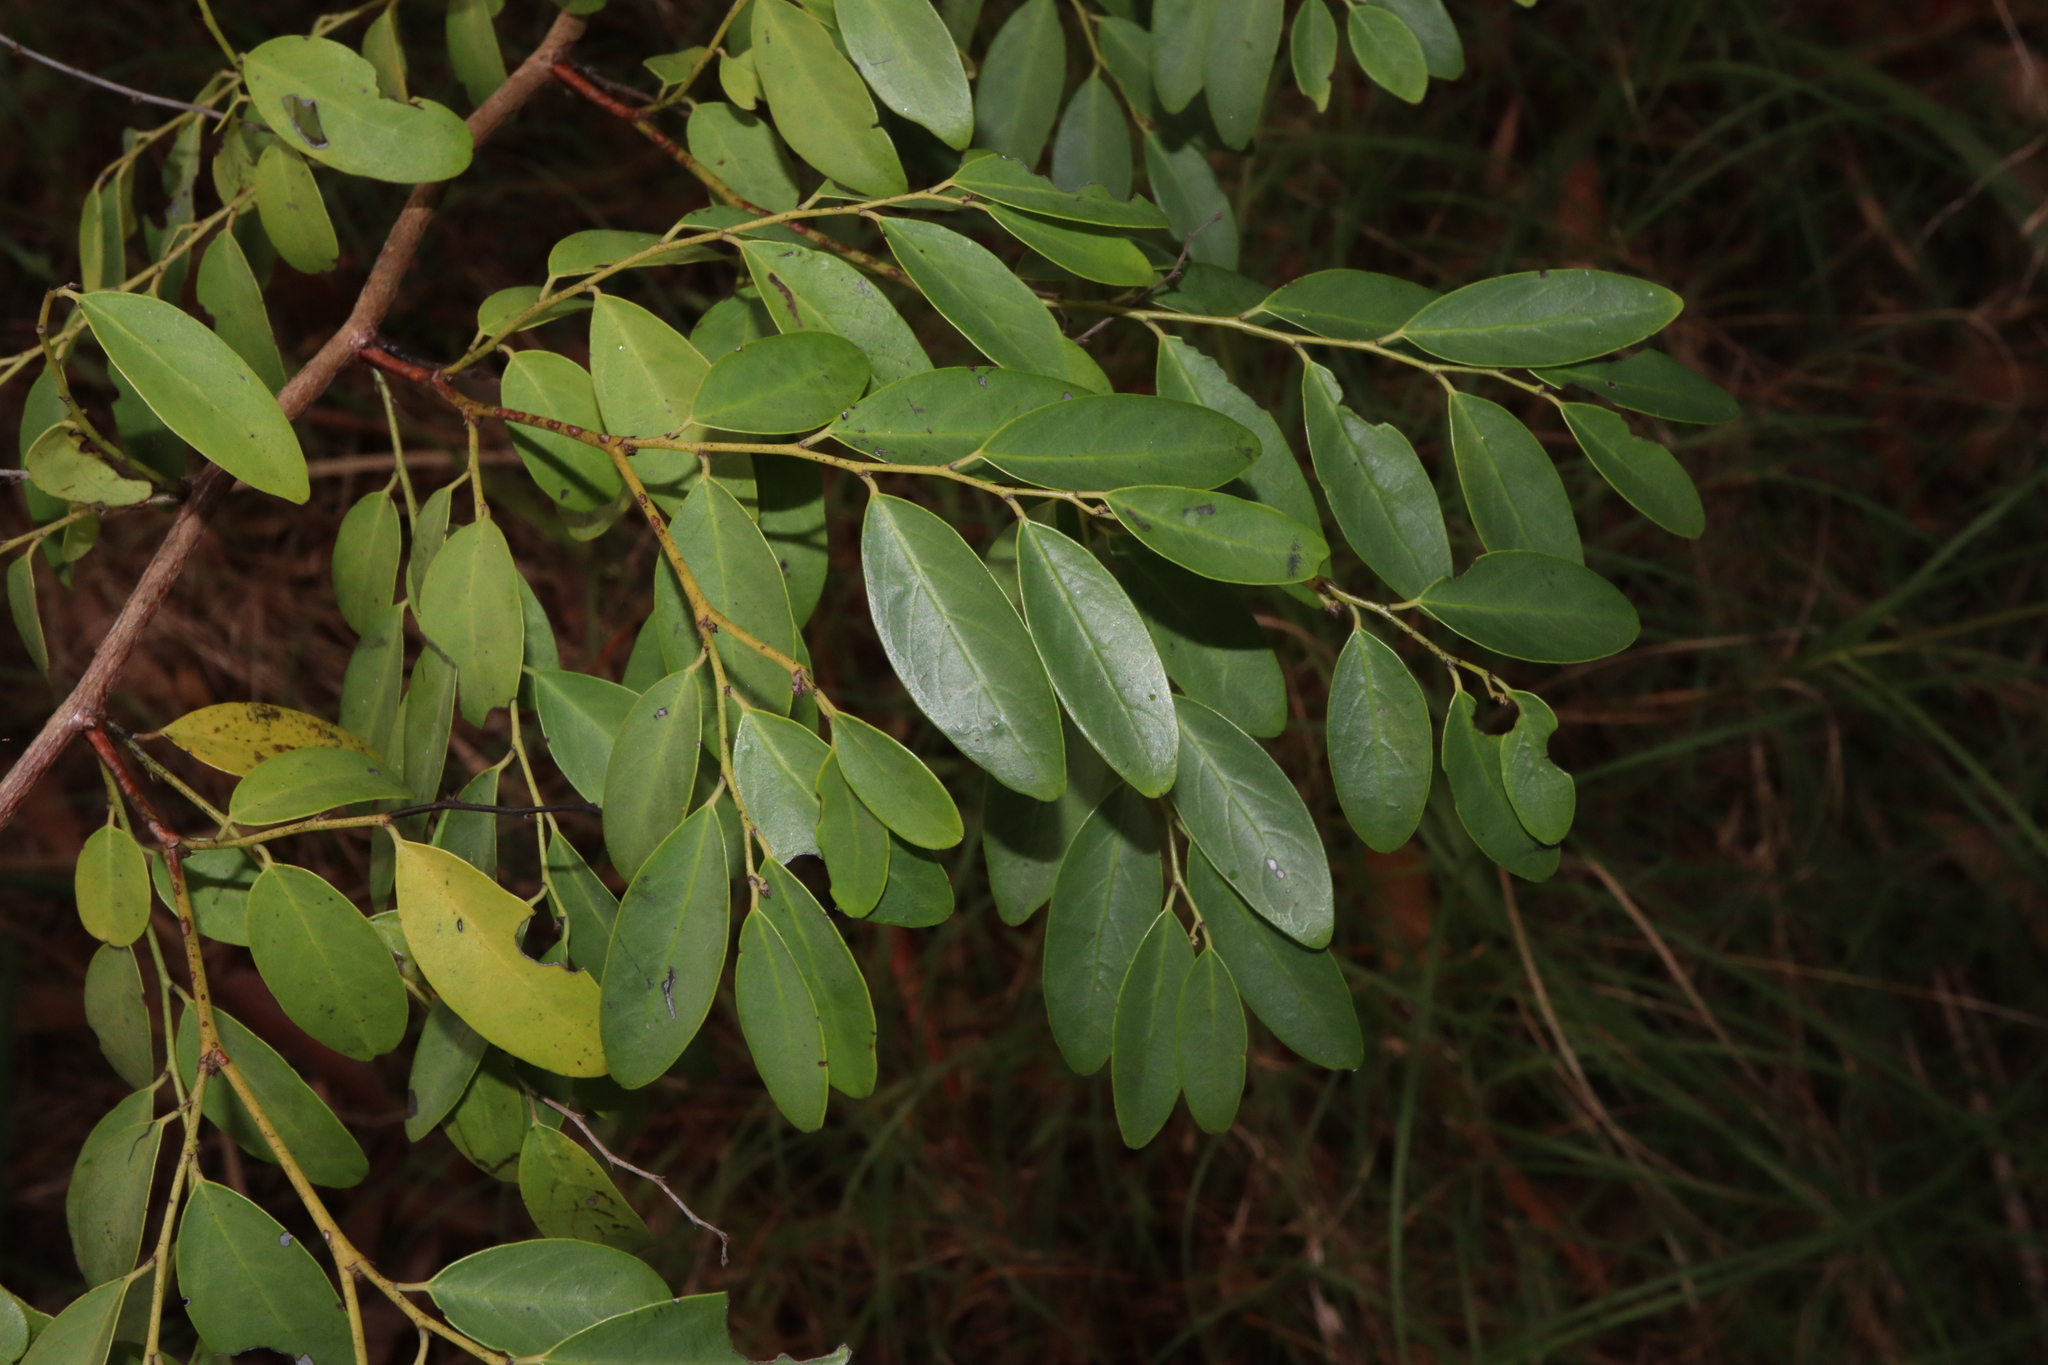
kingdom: Plantae
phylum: Tracheophyta
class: Magnoliopsida
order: Malpighiales
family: Phyllanthaceae
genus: Breynia
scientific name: Breynia oblongifolia
